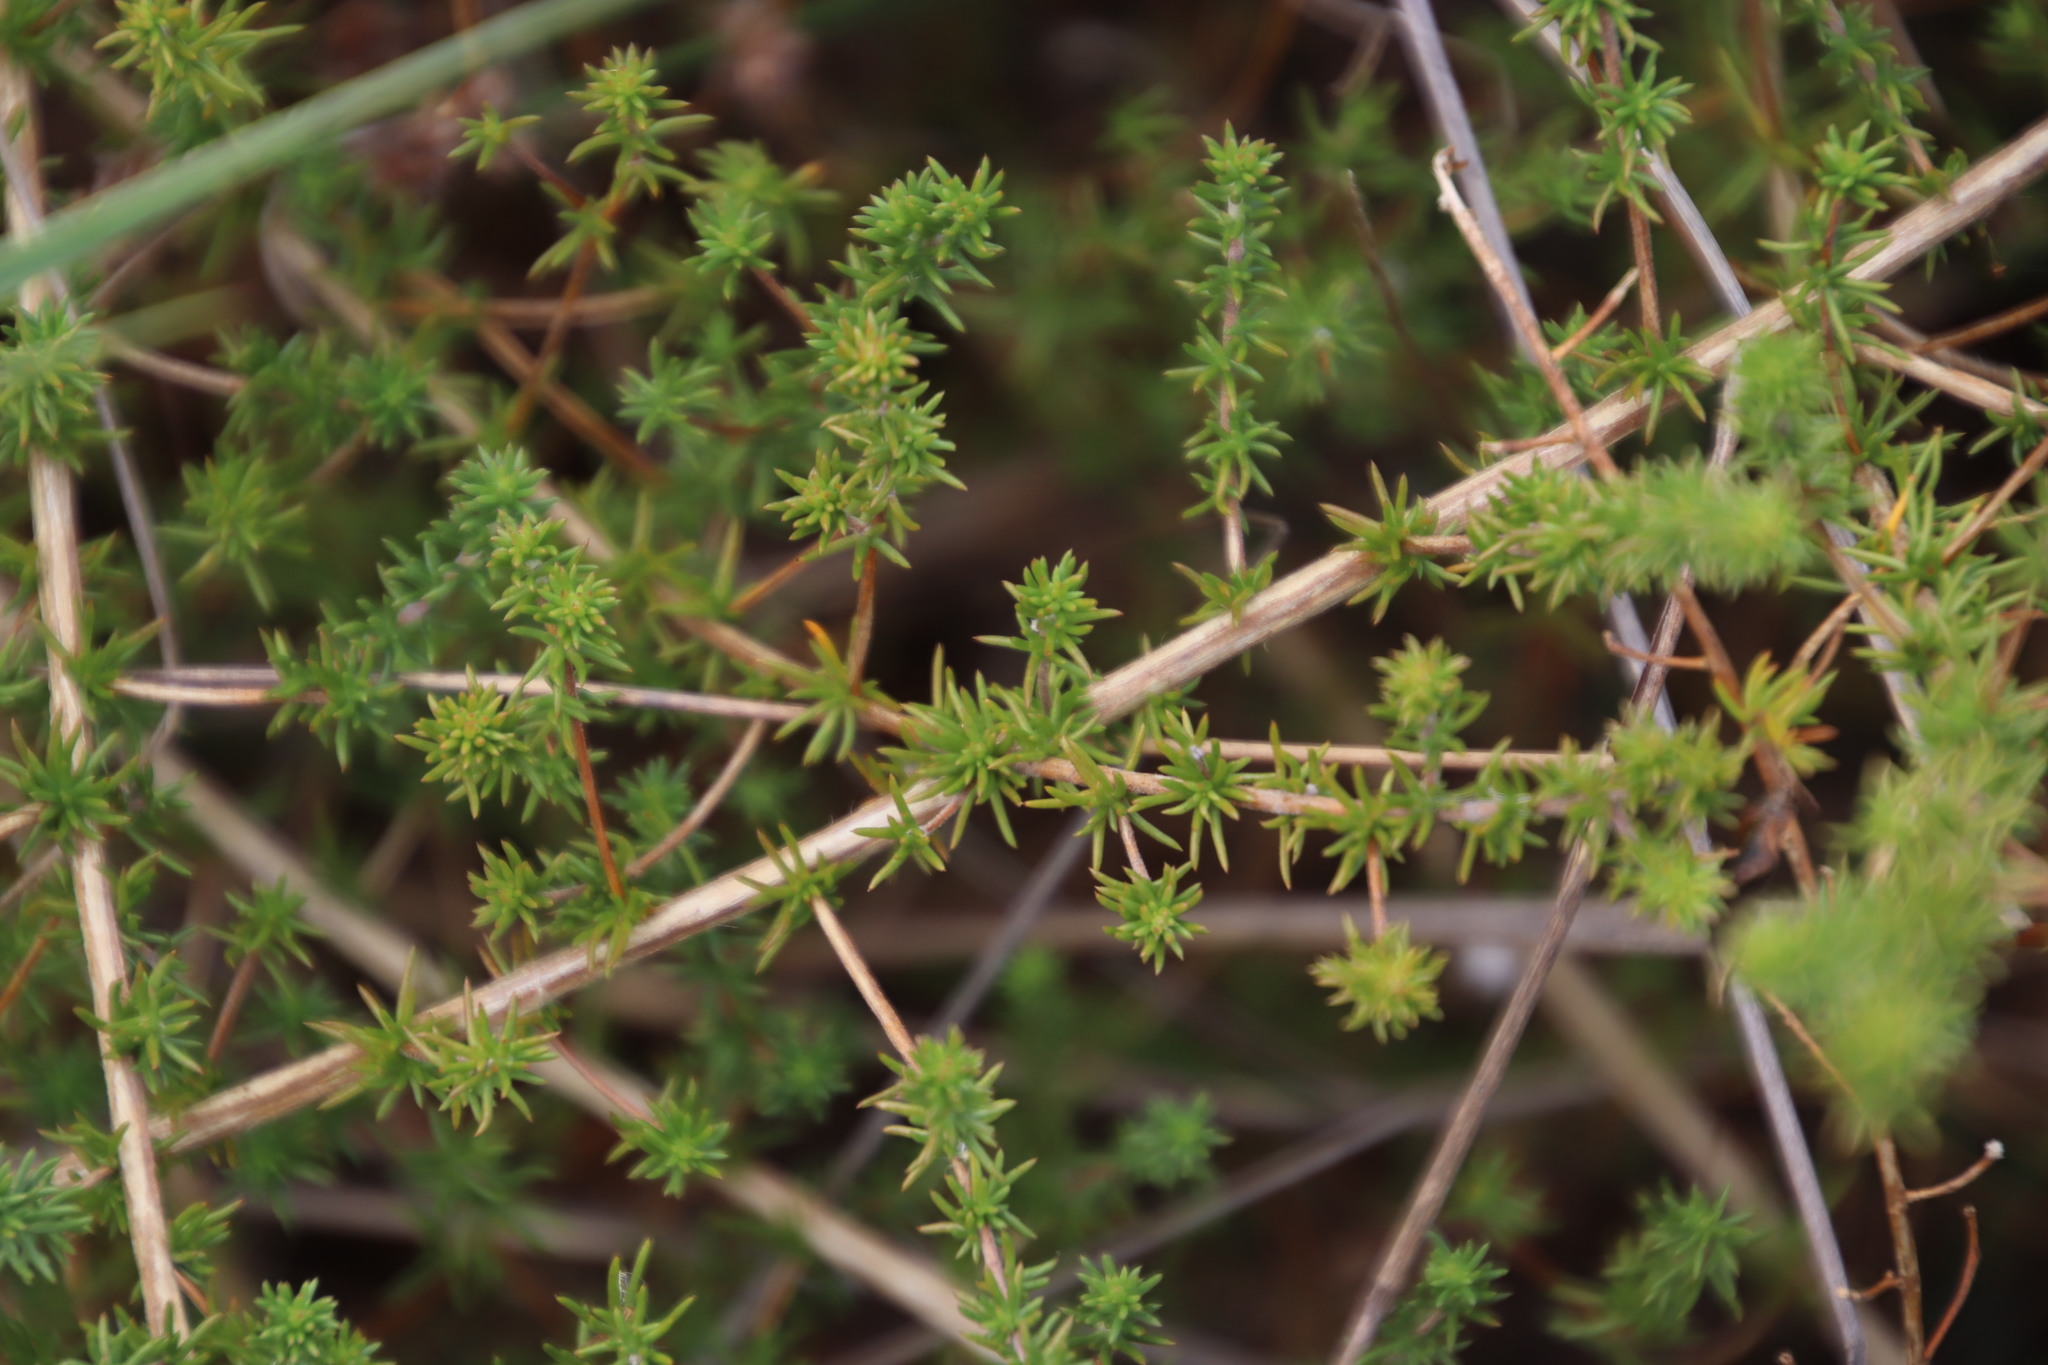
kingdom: Plantae
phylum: Tracheophyta
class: Magnoliopsida
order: Fabales
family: Fabaceae
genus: Aspalathus
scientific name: Aspalathus retroflexa
